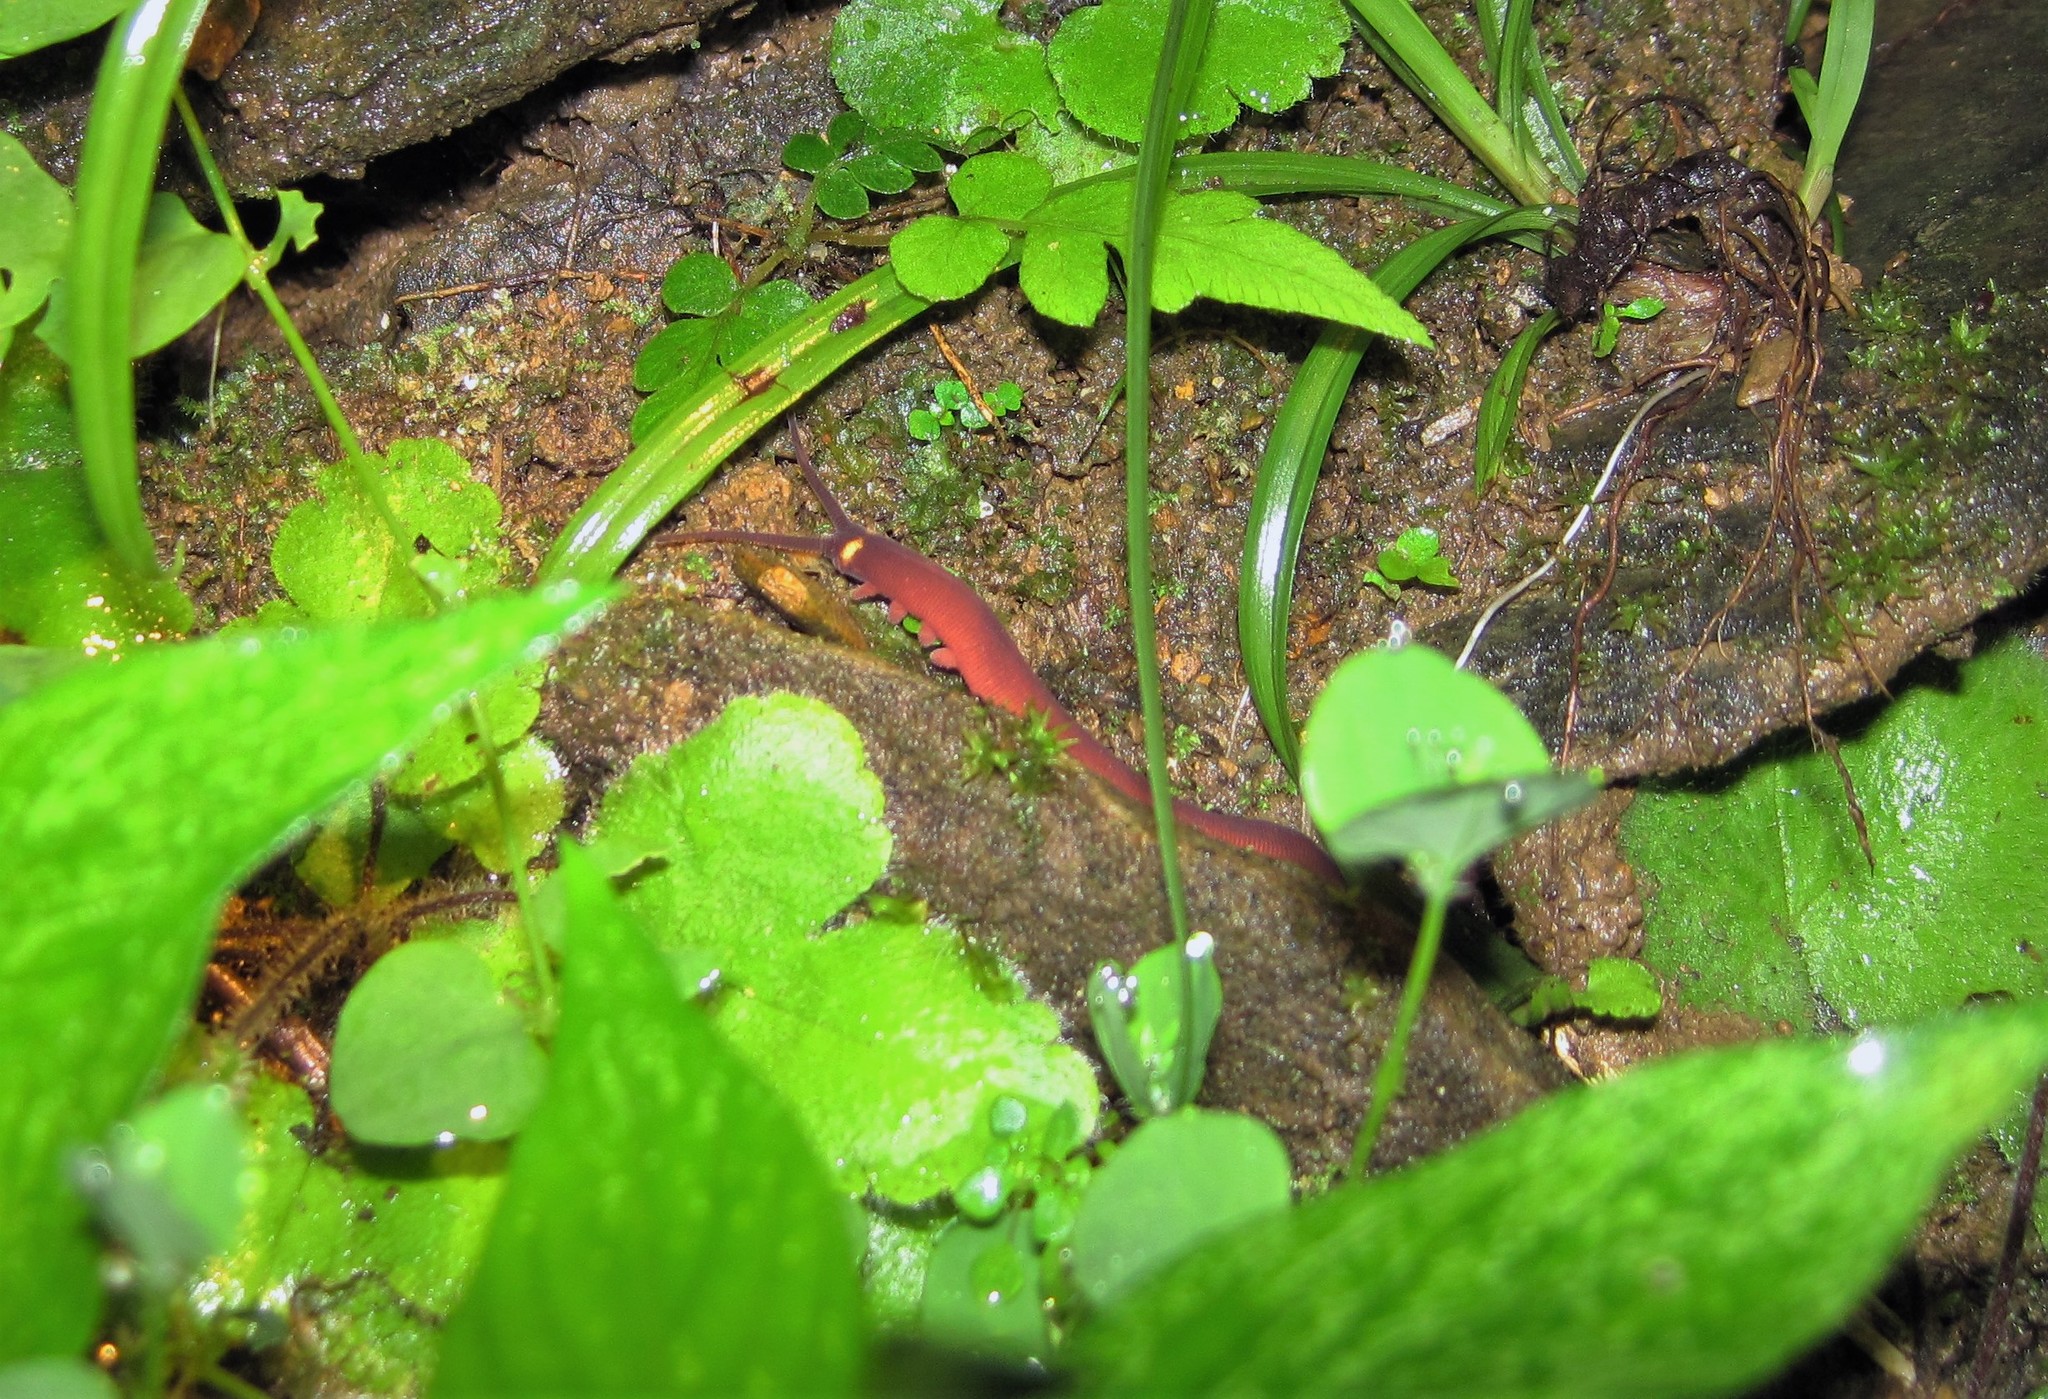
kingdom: Animalia
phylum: Onychophora
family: Peripatidae
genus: Macroperipatus
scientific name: Macroperipatus torquatus
